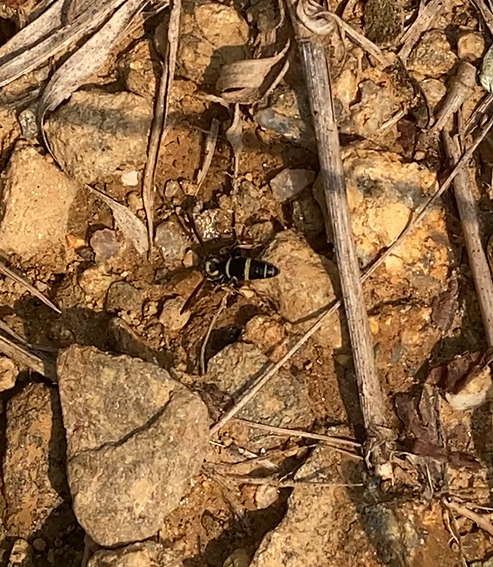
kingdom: Animalia
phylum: Arthropoda
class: Insecta
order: Hymenoptera
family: Eumenidae
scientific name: Eumenidae
